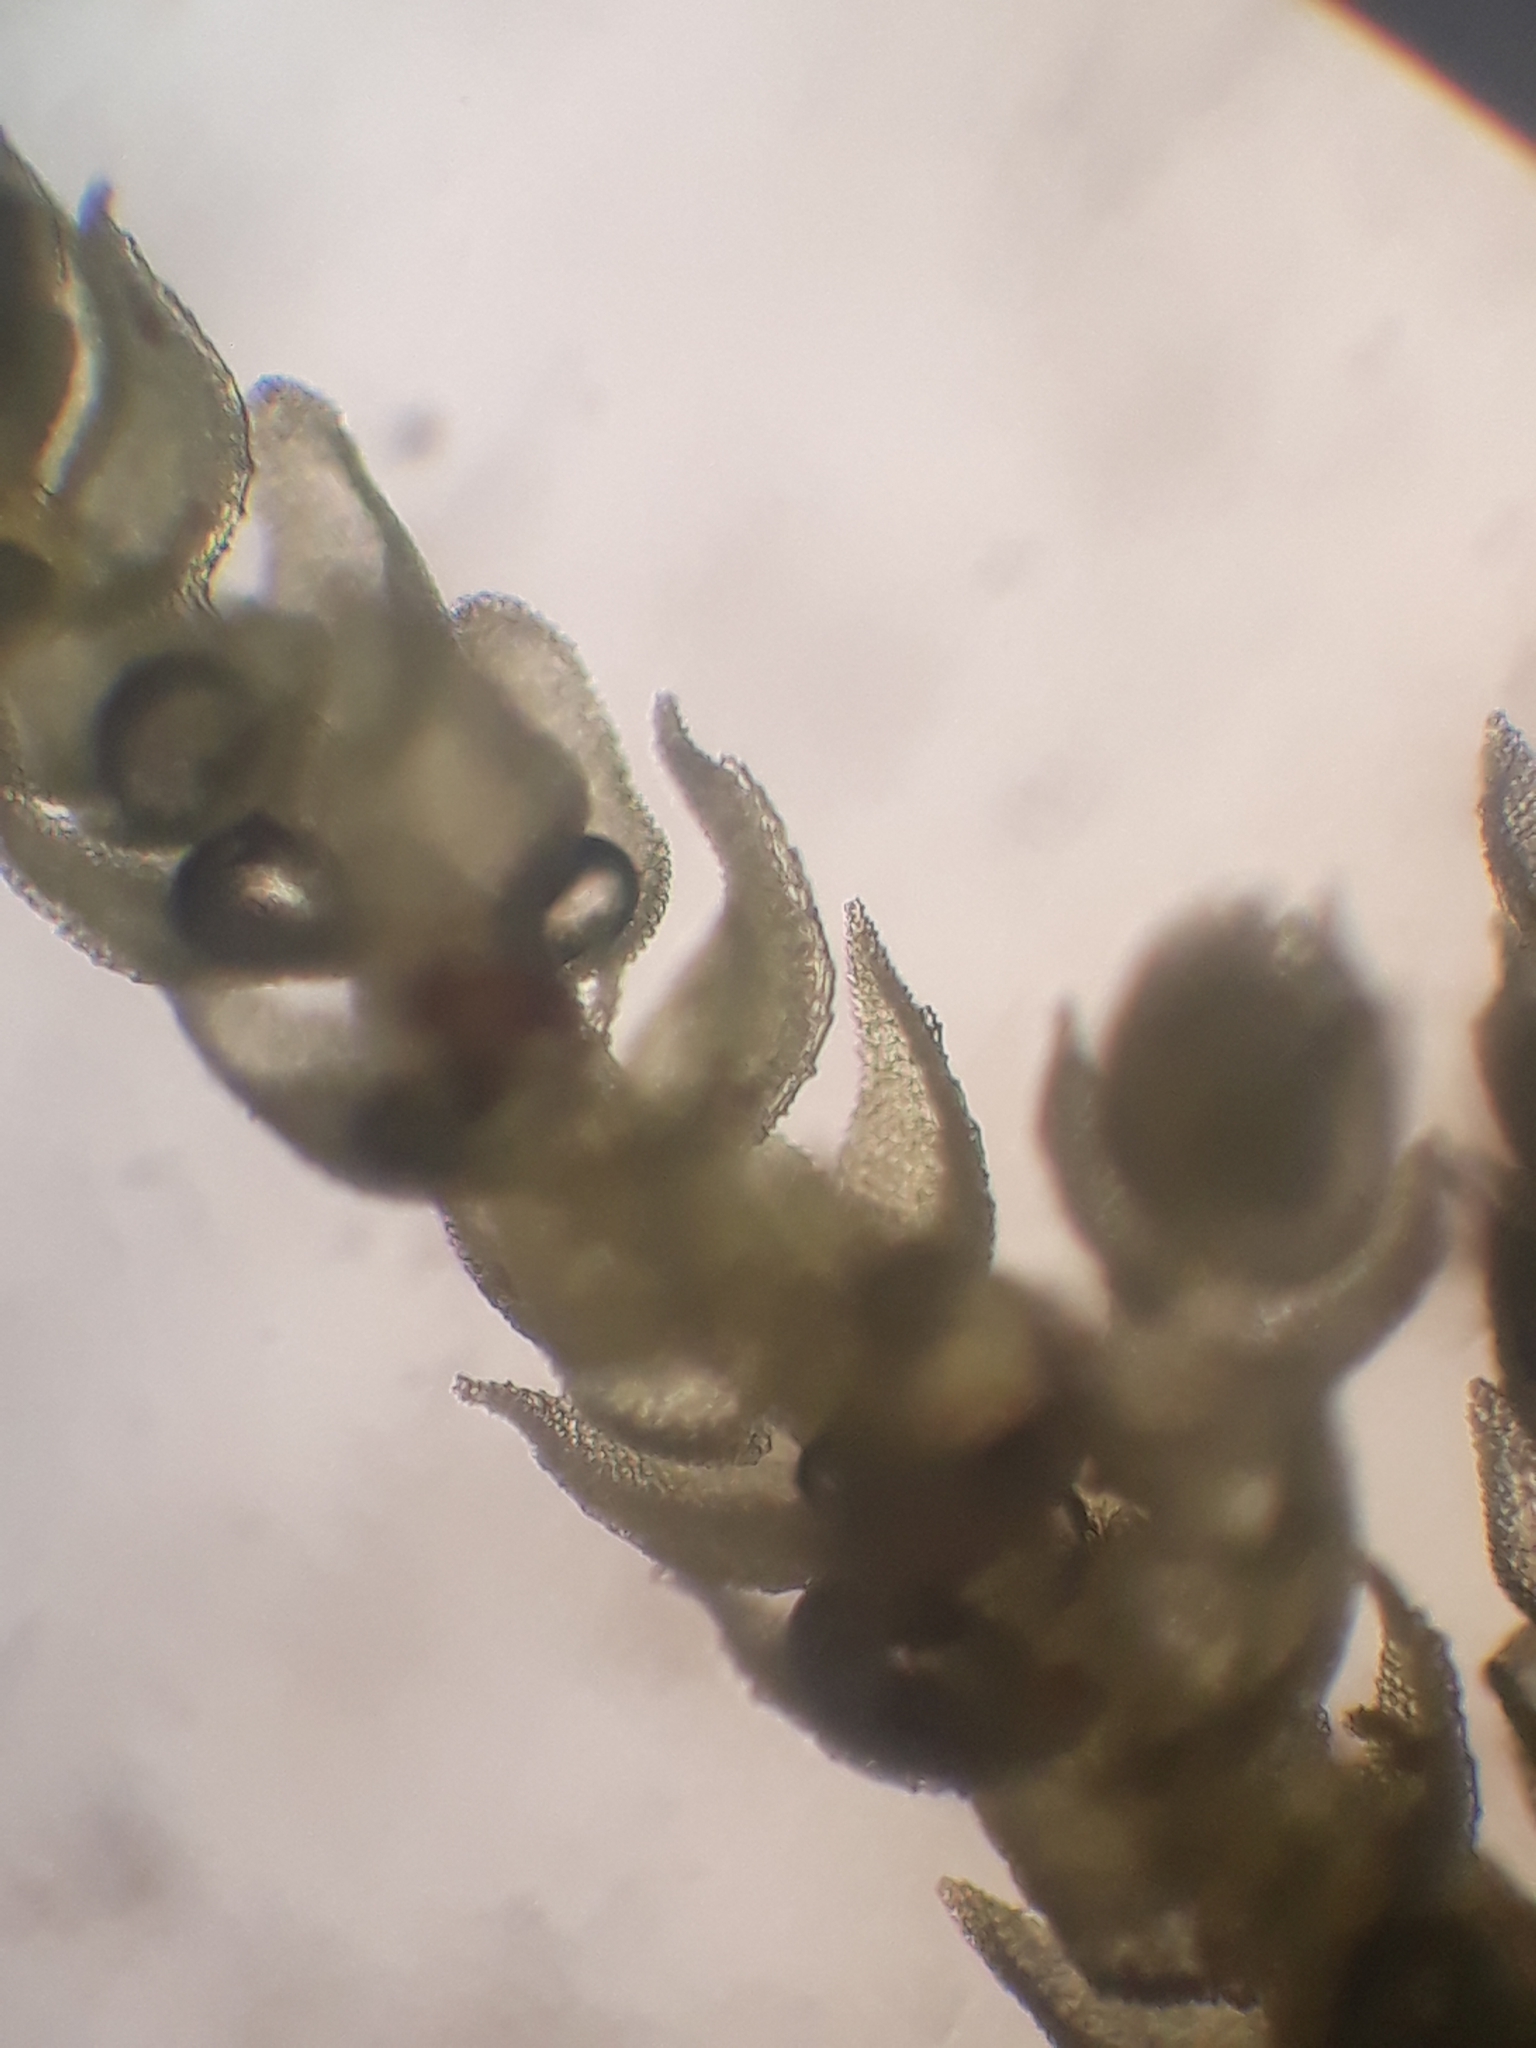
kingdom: Plantae
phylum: Bryophyta
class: Bryopsida
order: Hypnales
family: Thuidiaceae
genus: Thuidium
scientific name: Thuidium laeviusculum
